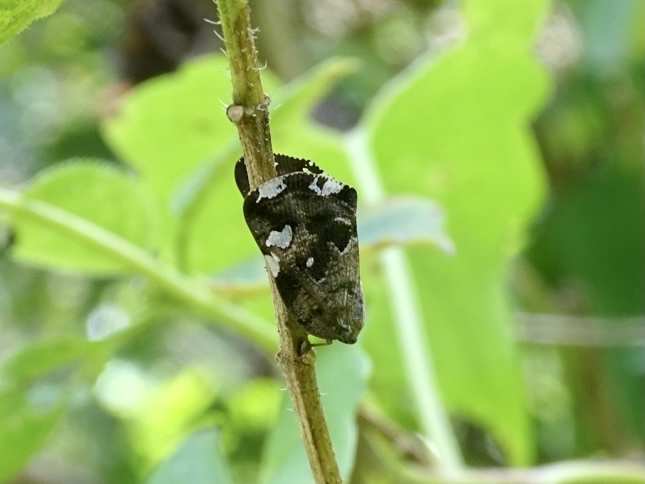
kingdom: Animalia
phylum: Arthropoda
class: Insecta
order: Hemiptera
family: Ricaniidae
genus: Ricania
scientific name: Ricania speculum
